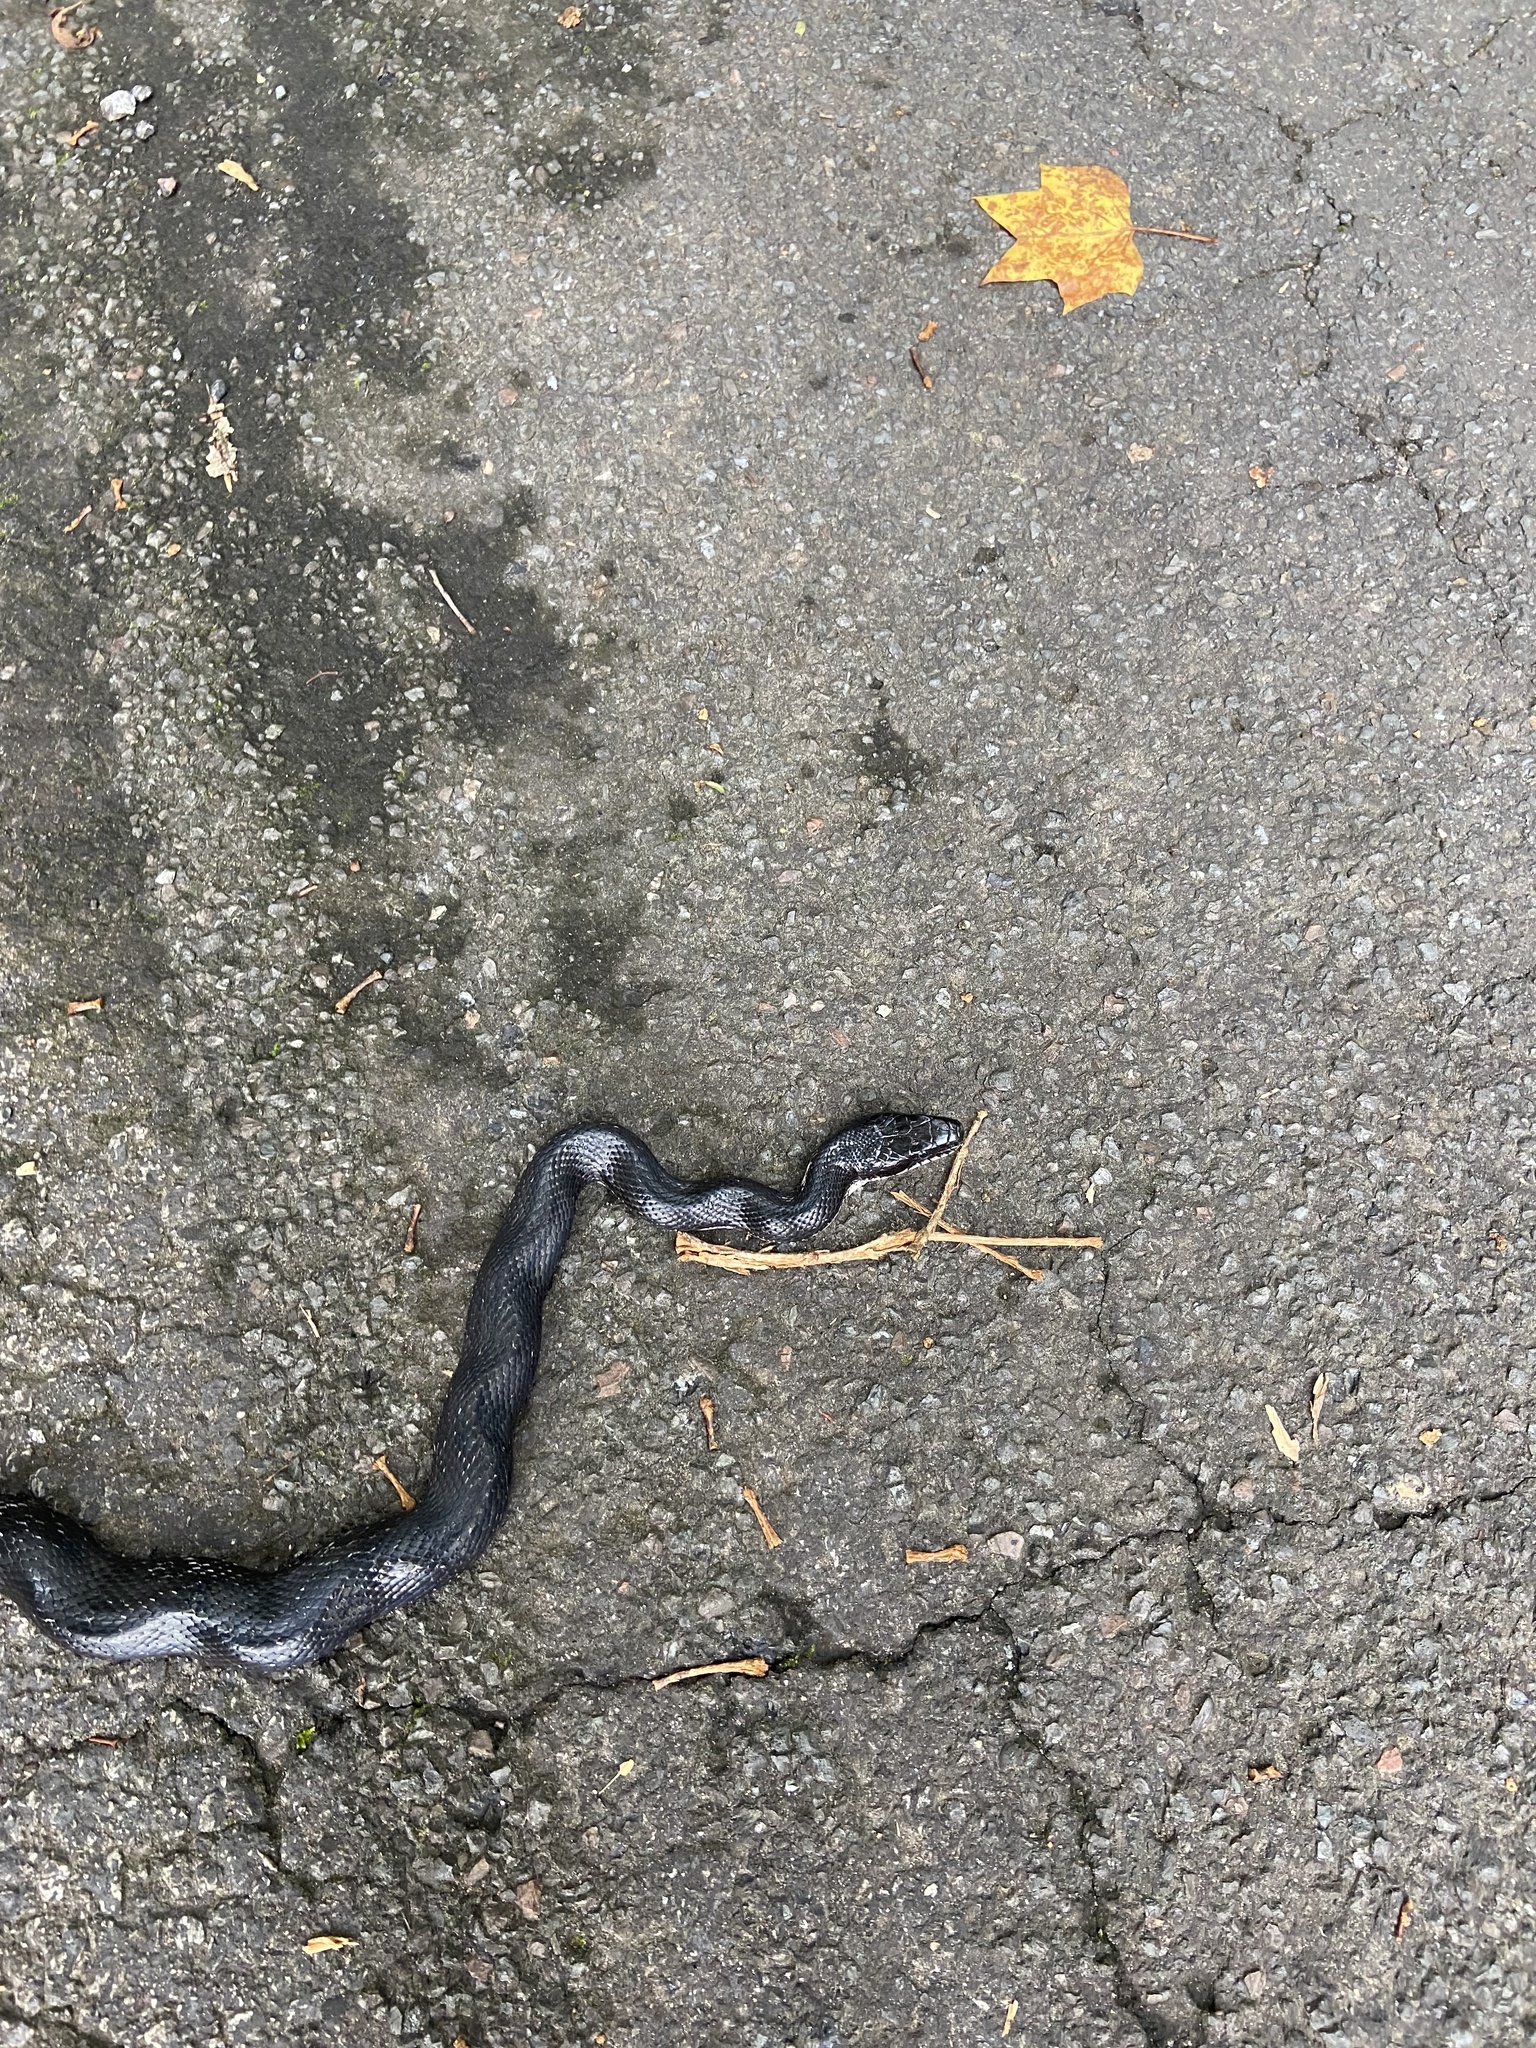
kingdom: Animalia
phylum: Chordata
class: Squamata
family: Colubridae
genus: Pantherophis
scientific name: Pantherophis alleghaniensis
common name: Eastern rat snake
